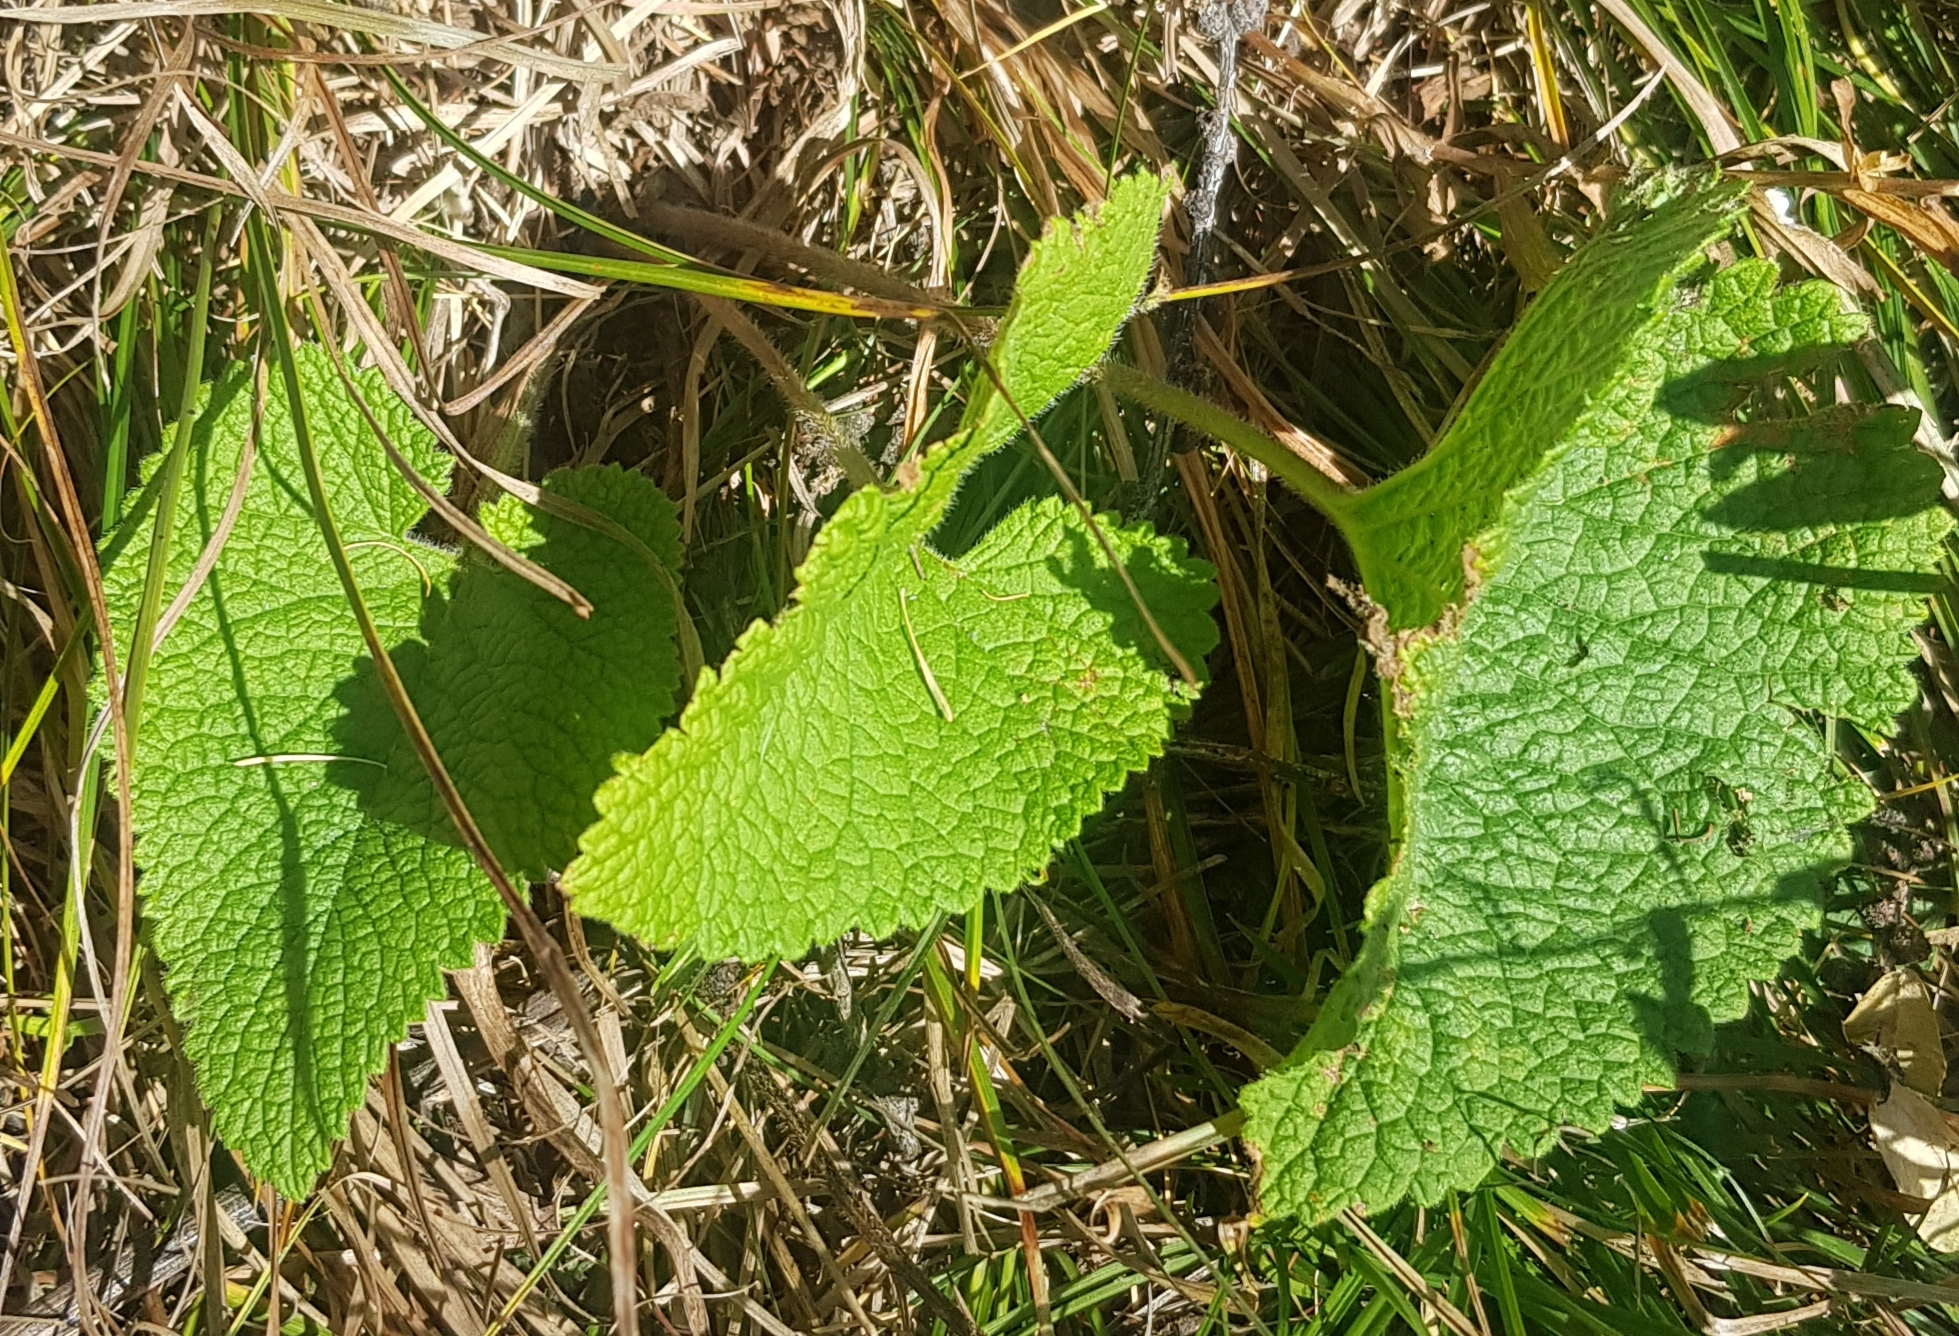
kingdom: Plantae
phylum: Tracheophyta
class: Magnoliopsida
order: Lamiales
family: Lamiaceae
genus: Phlomoides
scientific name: Phlomoides tuberosa
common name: Tuberous jerusalem sage
